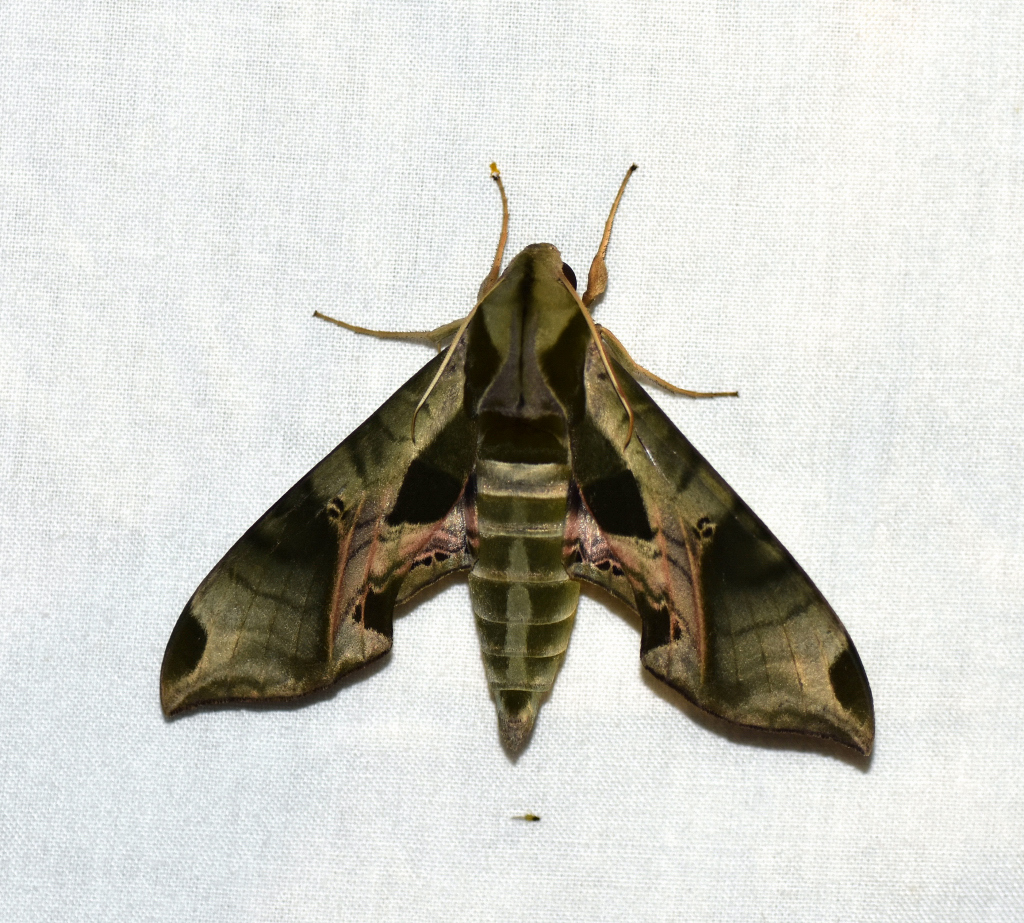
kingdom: Animalia
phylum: Arthropoda
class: Insecta
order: Lepidoptera
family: Sphingidae
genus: Eumorpha
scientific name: Eumorpha pandorus
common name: Pandora sphinx
